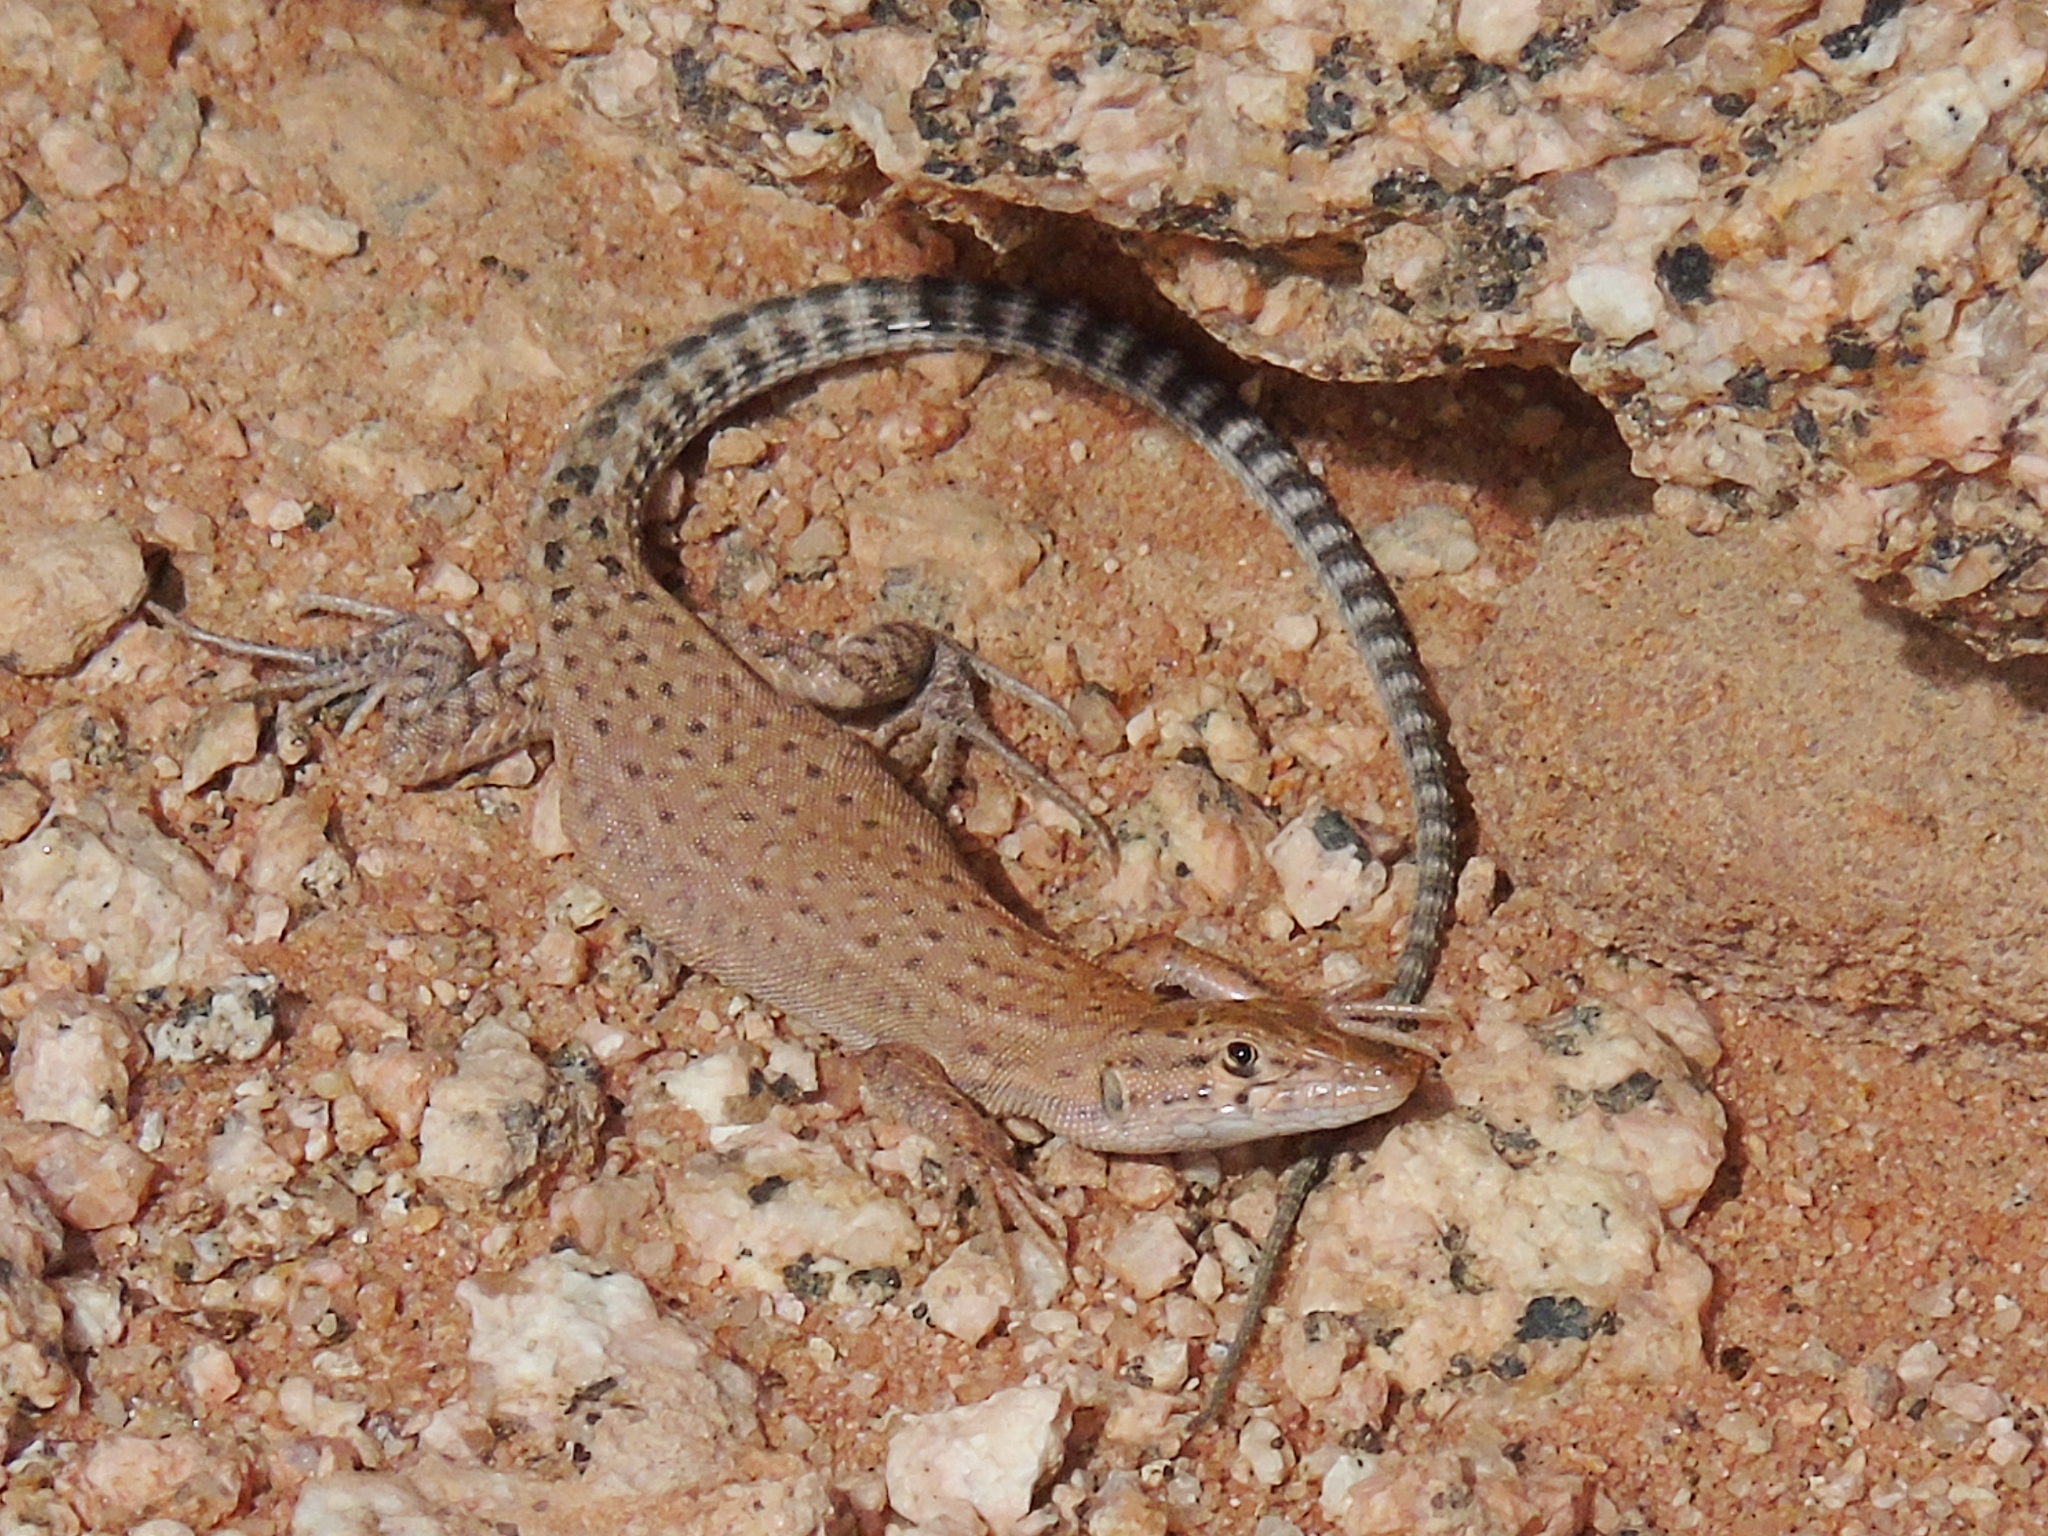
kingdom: Animalia
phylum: Chordata
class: Squamata
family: Lacertidae
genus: Mesalina
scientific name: Mesalina bahaeldini
